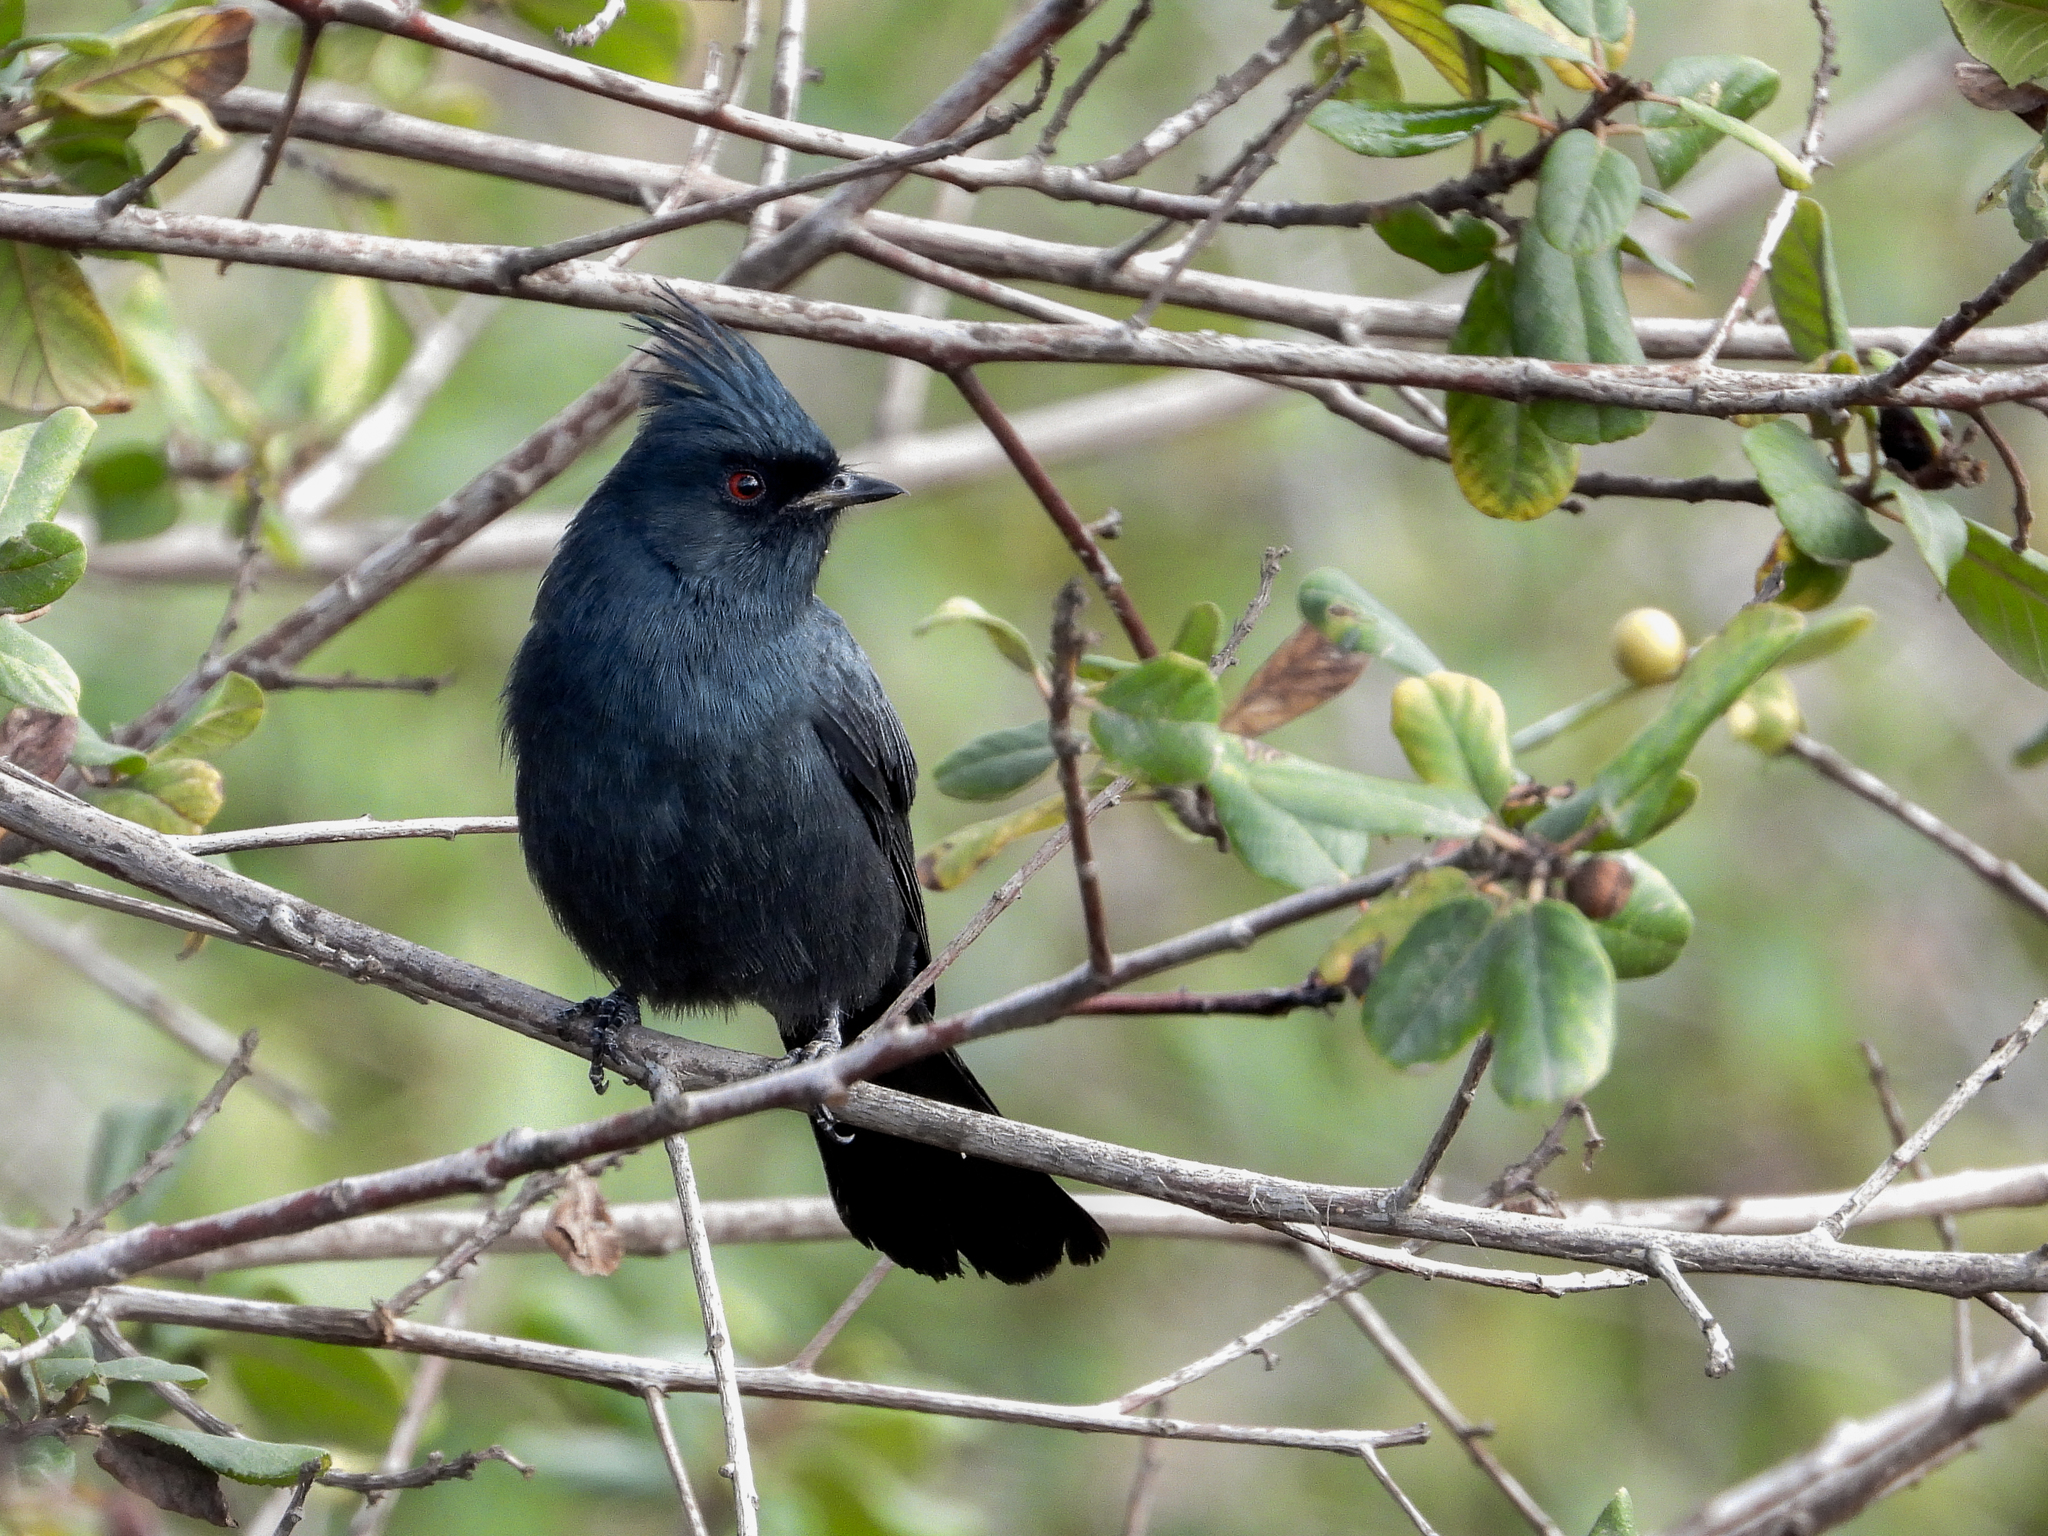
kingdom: Animalia
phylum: Chordata
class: Aves
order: Passeriformes
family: Ptilogonatidae
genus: Phainopepla
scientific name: Phainopepla nitens
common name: Phainopepla
